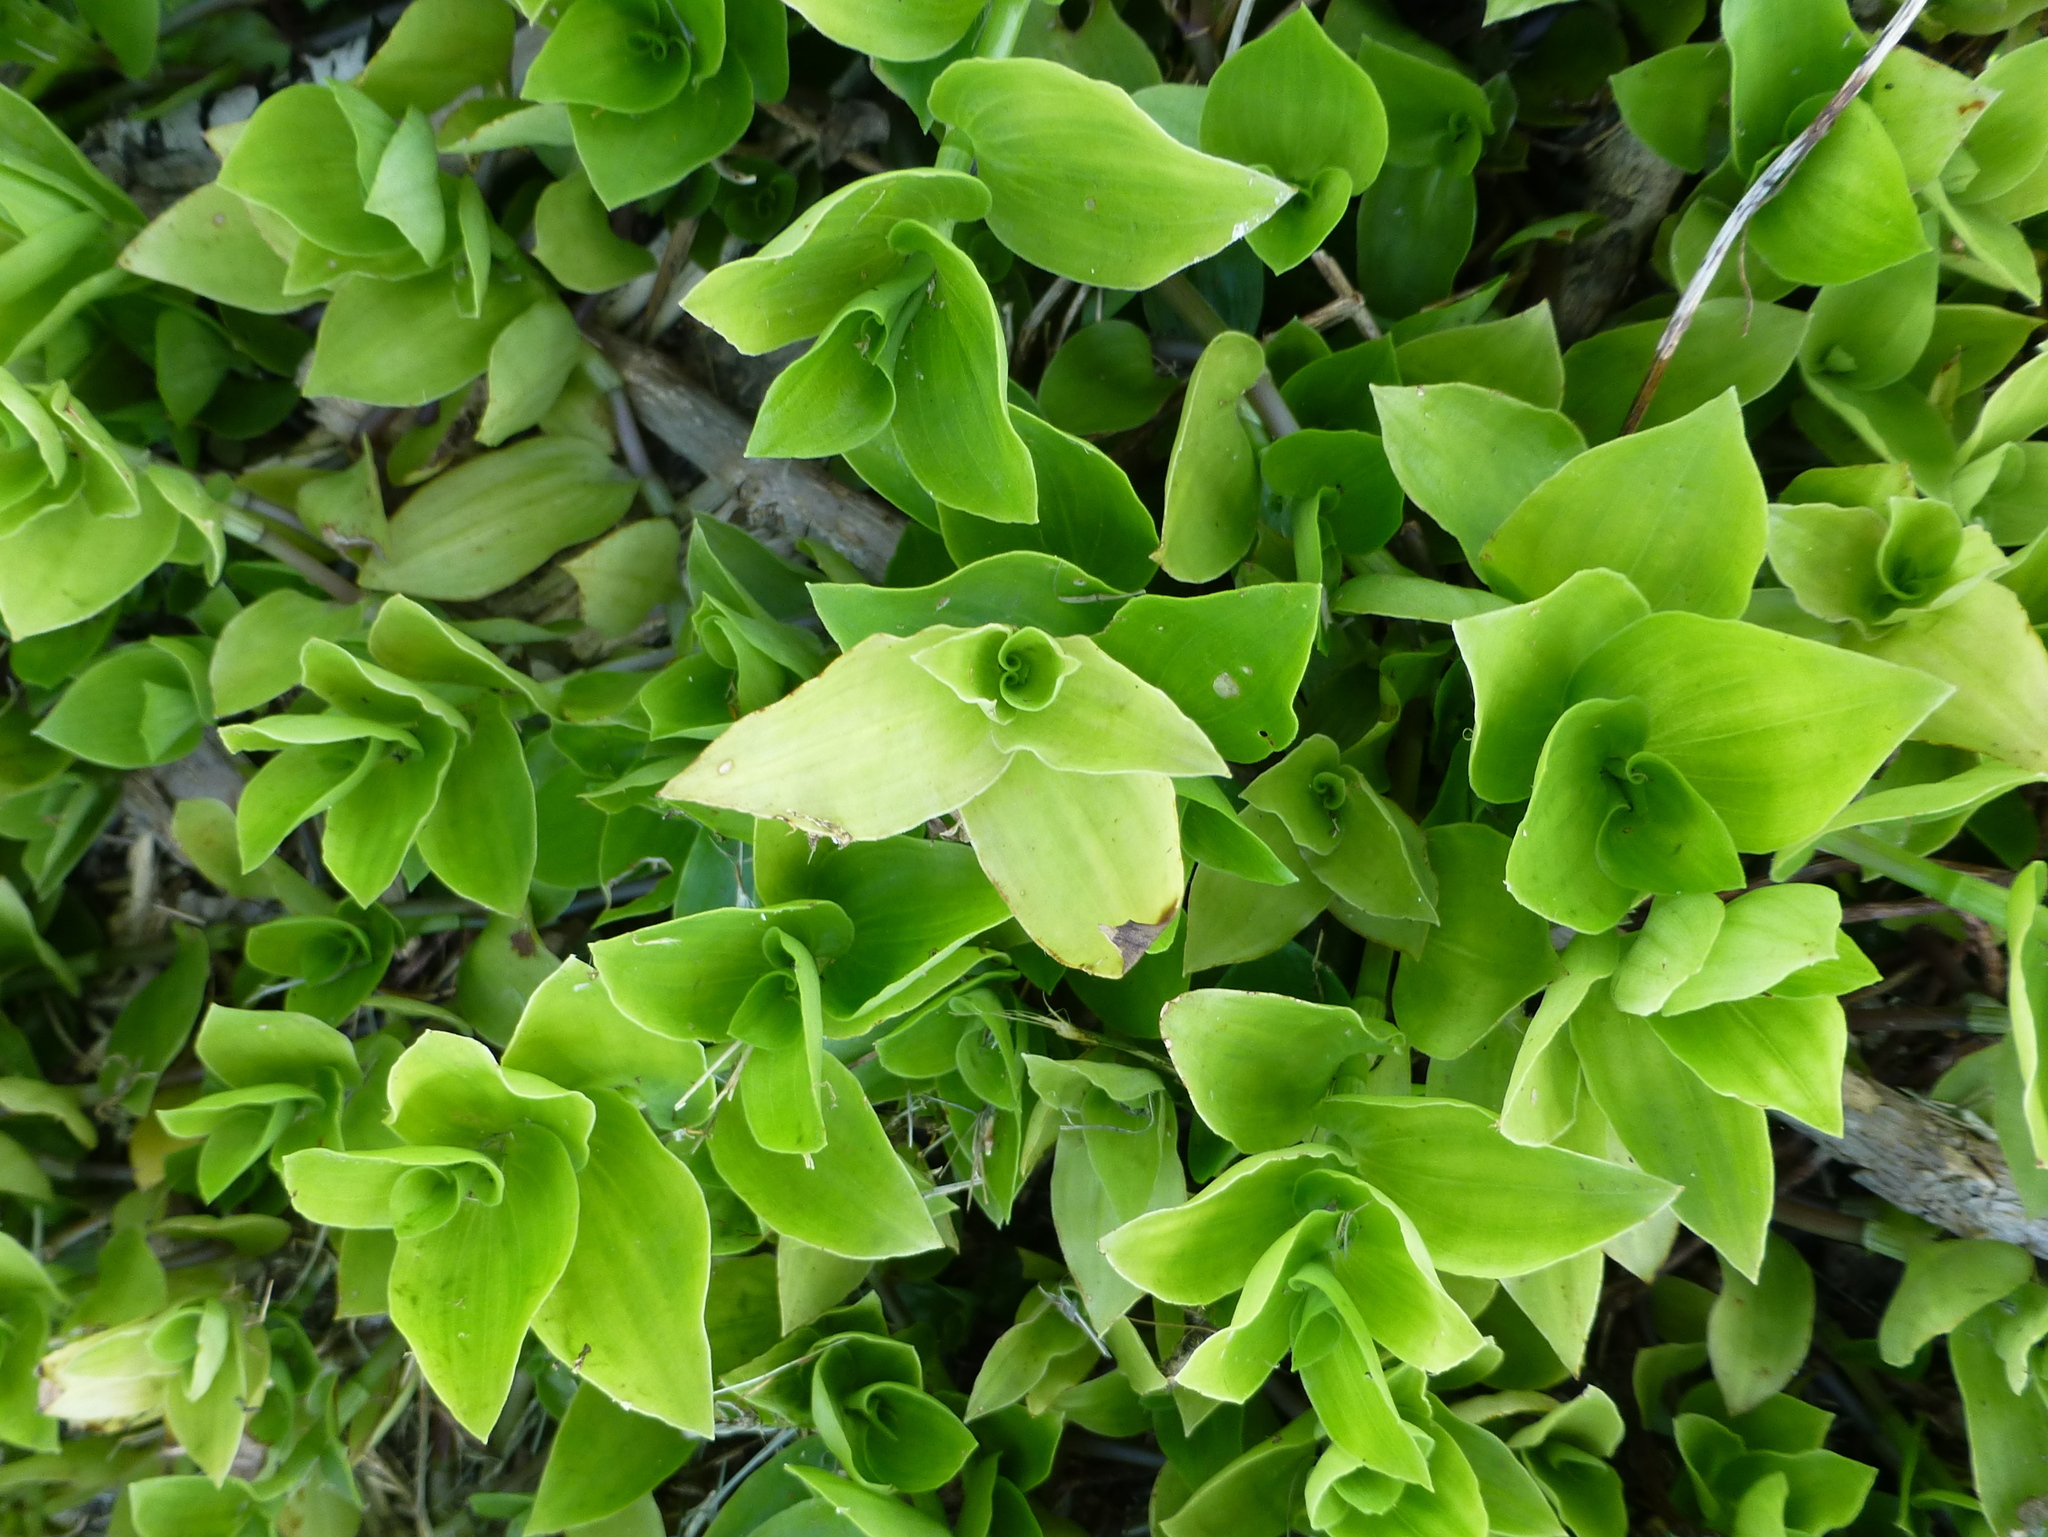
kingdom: Plantae
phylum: Tracheophyta
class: Liliopsida
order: Commelinales
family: Commelinaceae
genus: Tradescantia
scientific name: Tradescantia fluminensis
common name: Wandering-jew
